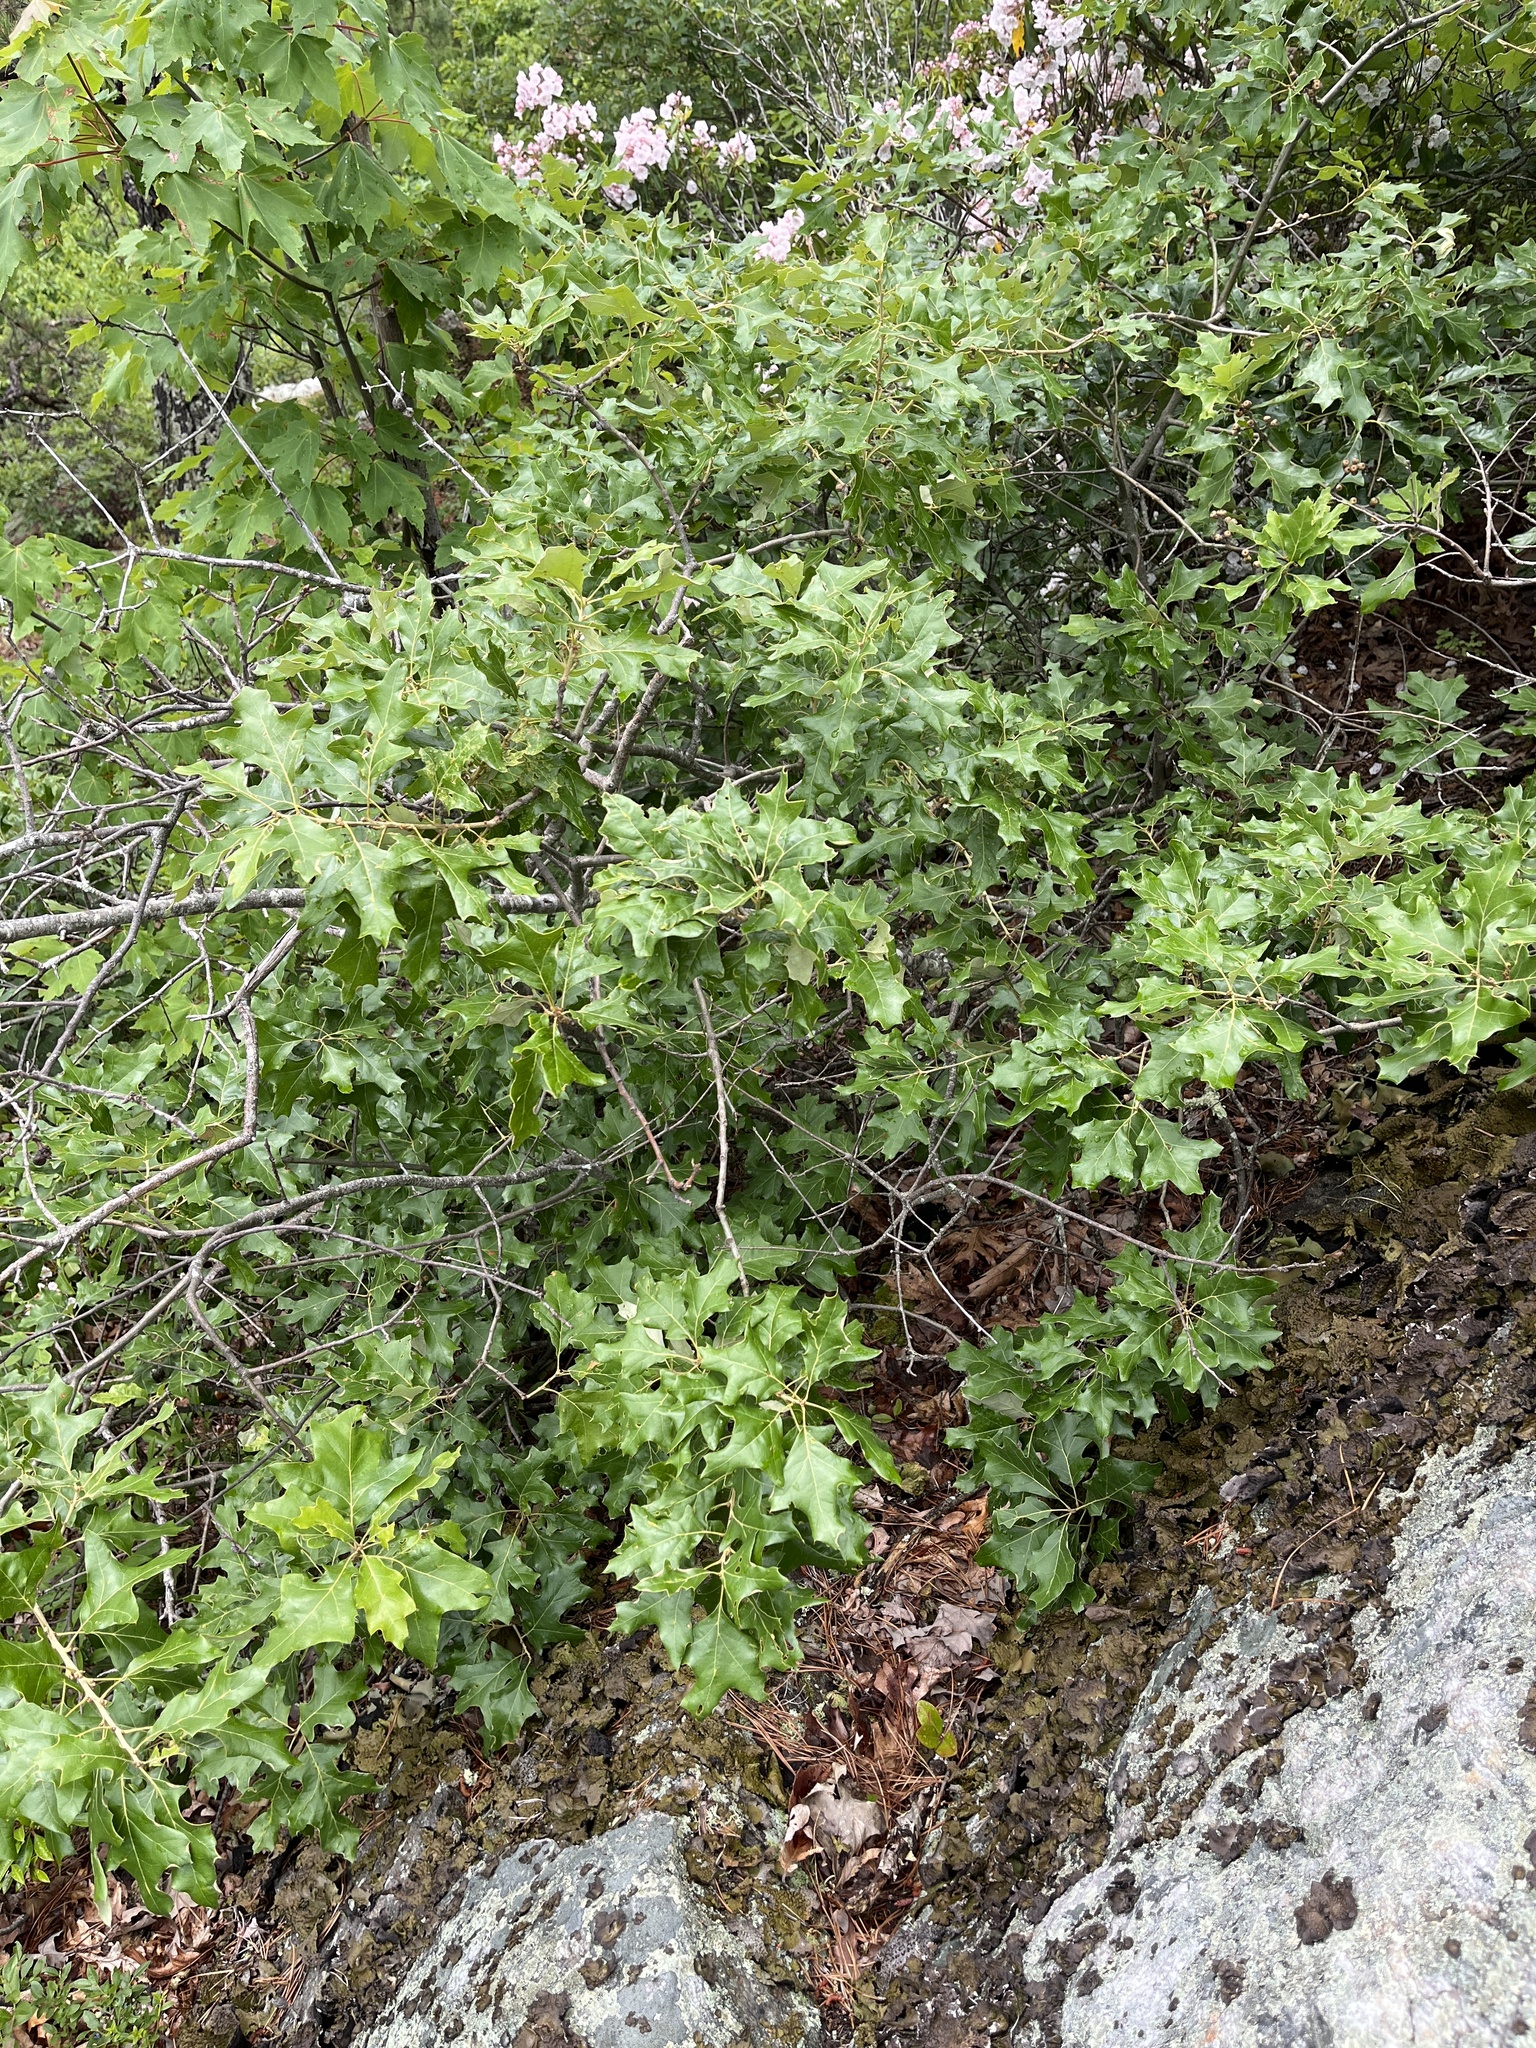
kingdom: Plantae
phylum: Tracheophyta
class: Magnoliopsida
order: Fagales
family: Fagaceae
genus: Quercus
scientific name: Quercus ilicifolia
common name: Bear oak
